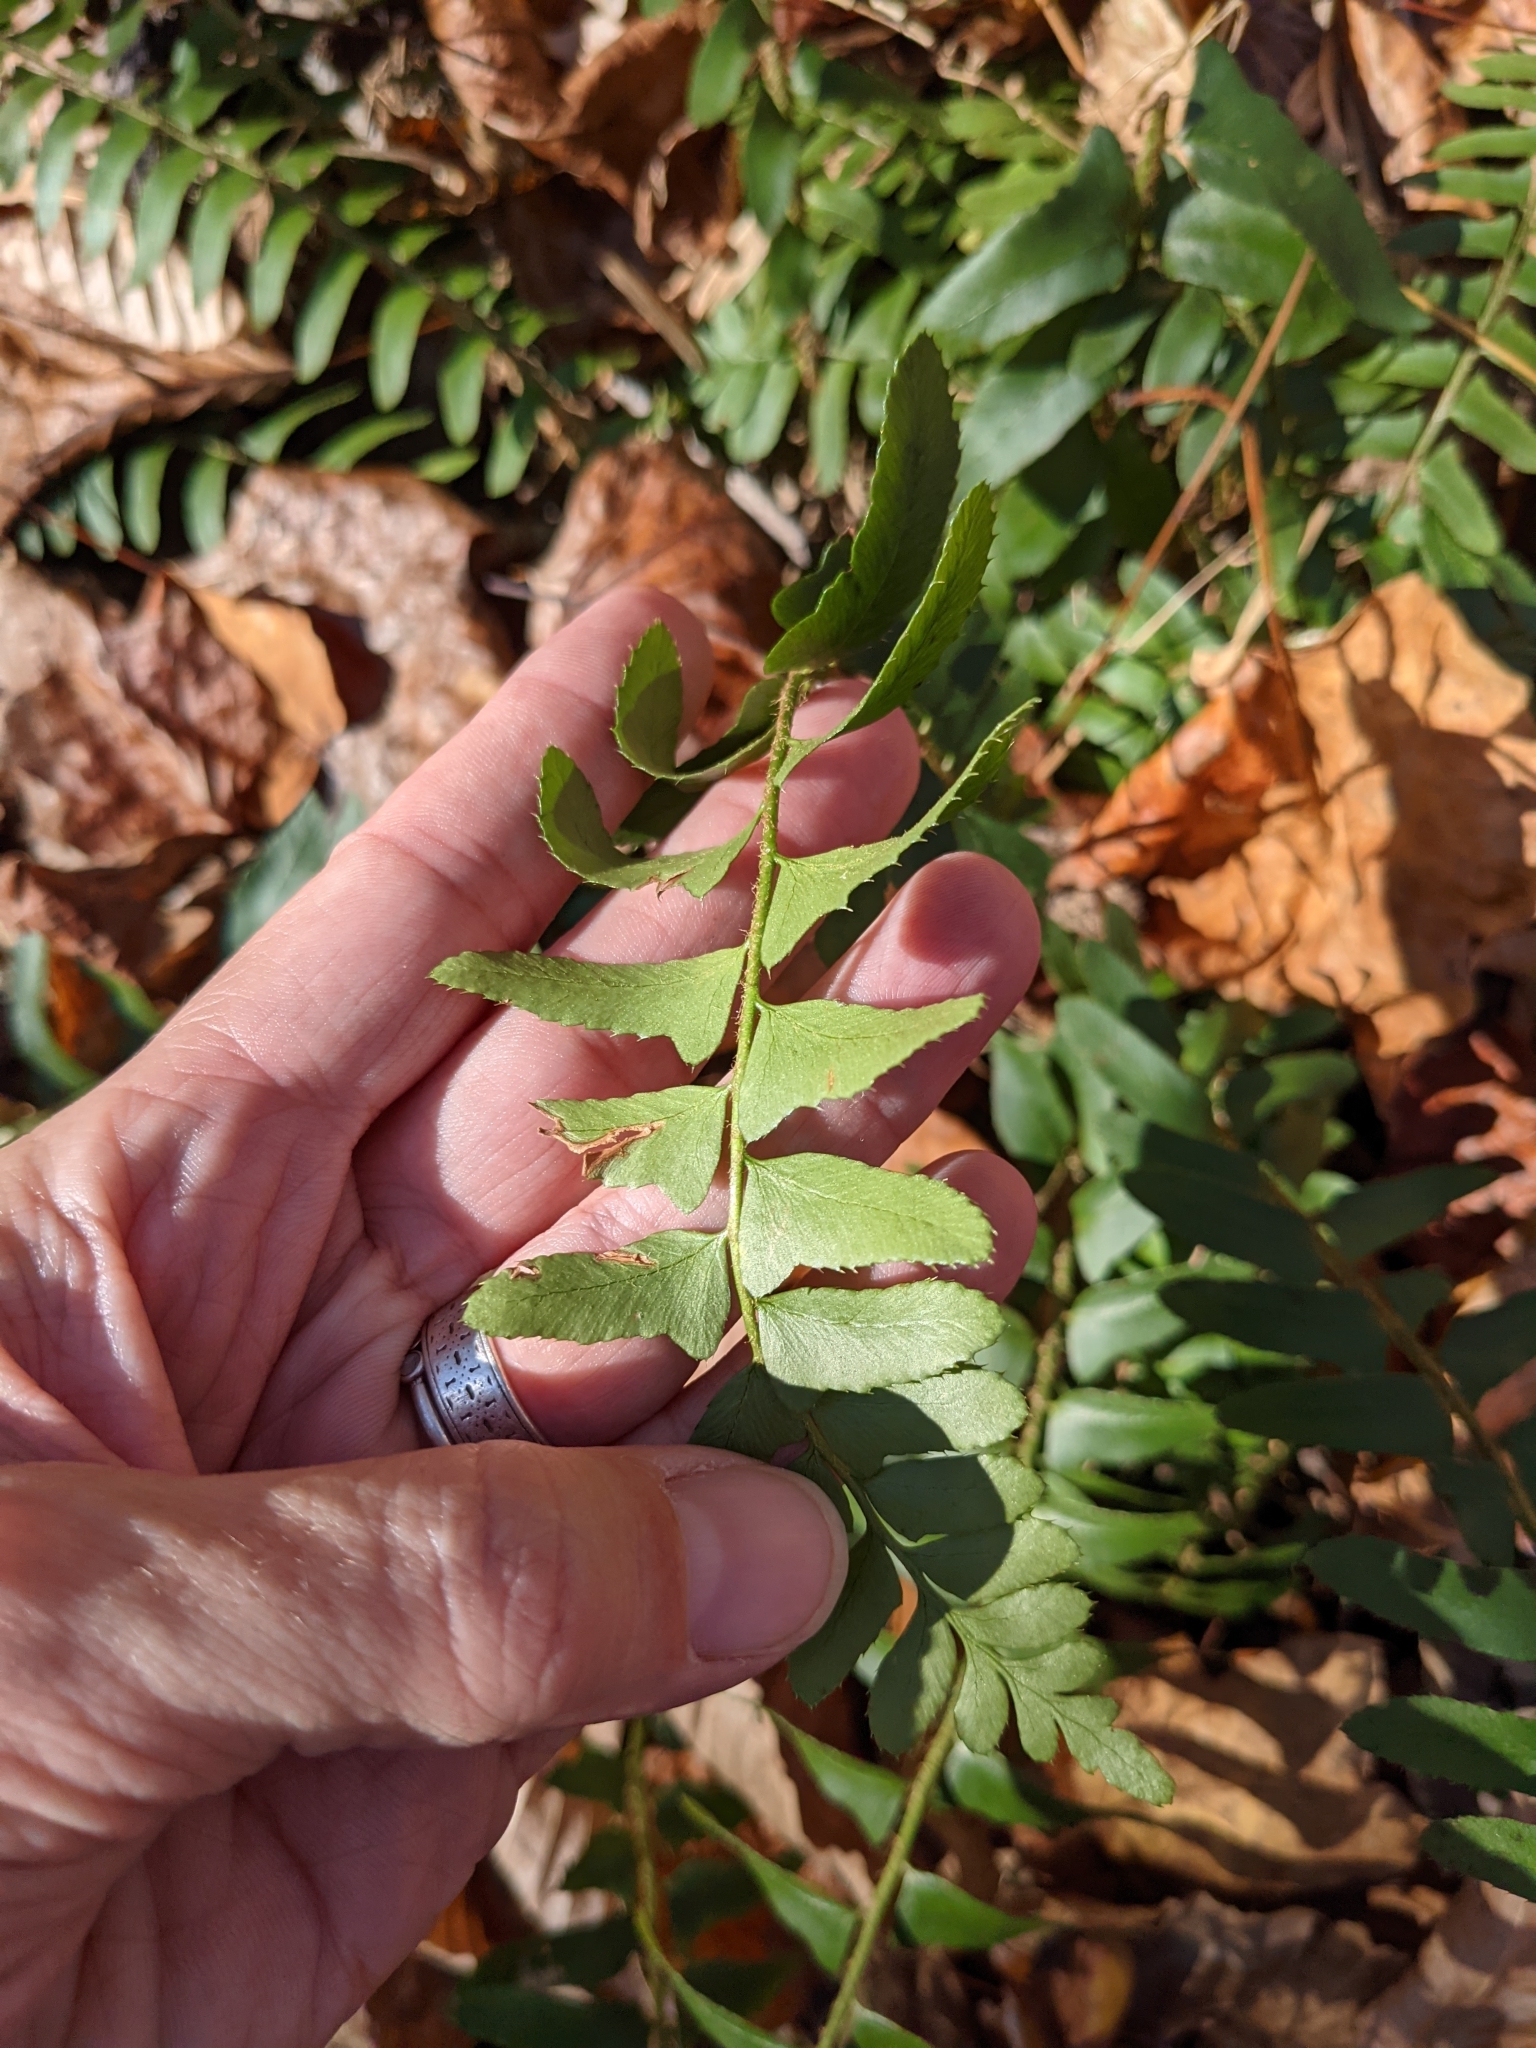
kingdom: Plantae
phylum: Tracheophyta
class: Polypodiopsida
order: Polypodiales
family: Dryopteridaceae
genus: Polystichum
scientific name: Polystichum acrostichoides
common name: Christmas fern
